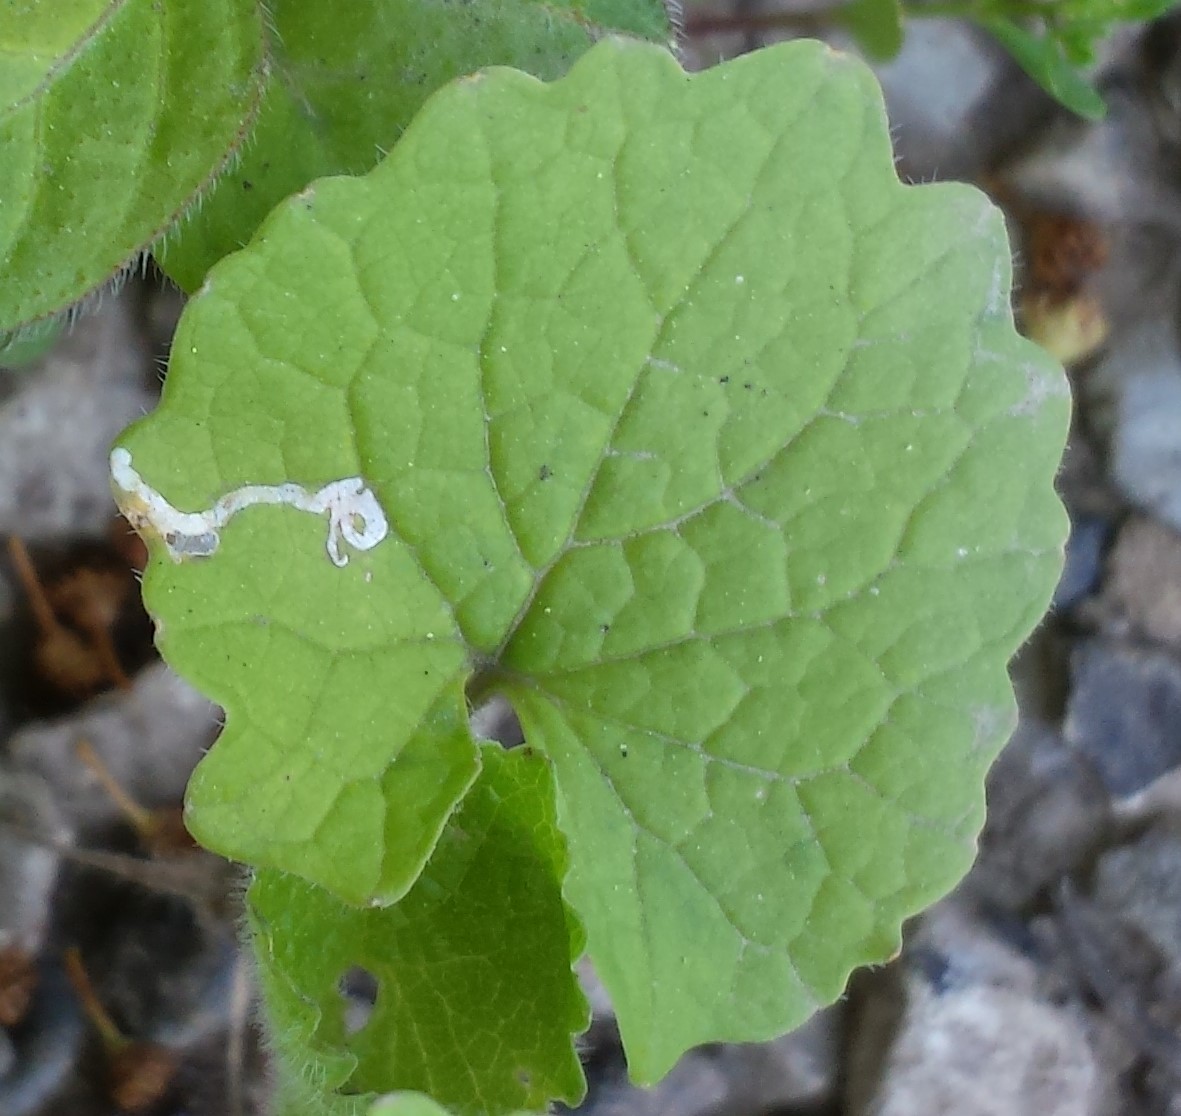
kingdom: Animalia
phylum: Arthropoda
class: Insecta
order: Diptera
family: Agromyzidae
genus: Liriomyza
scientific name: Liriomyza brassicae
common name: Serpentine leaf miner
